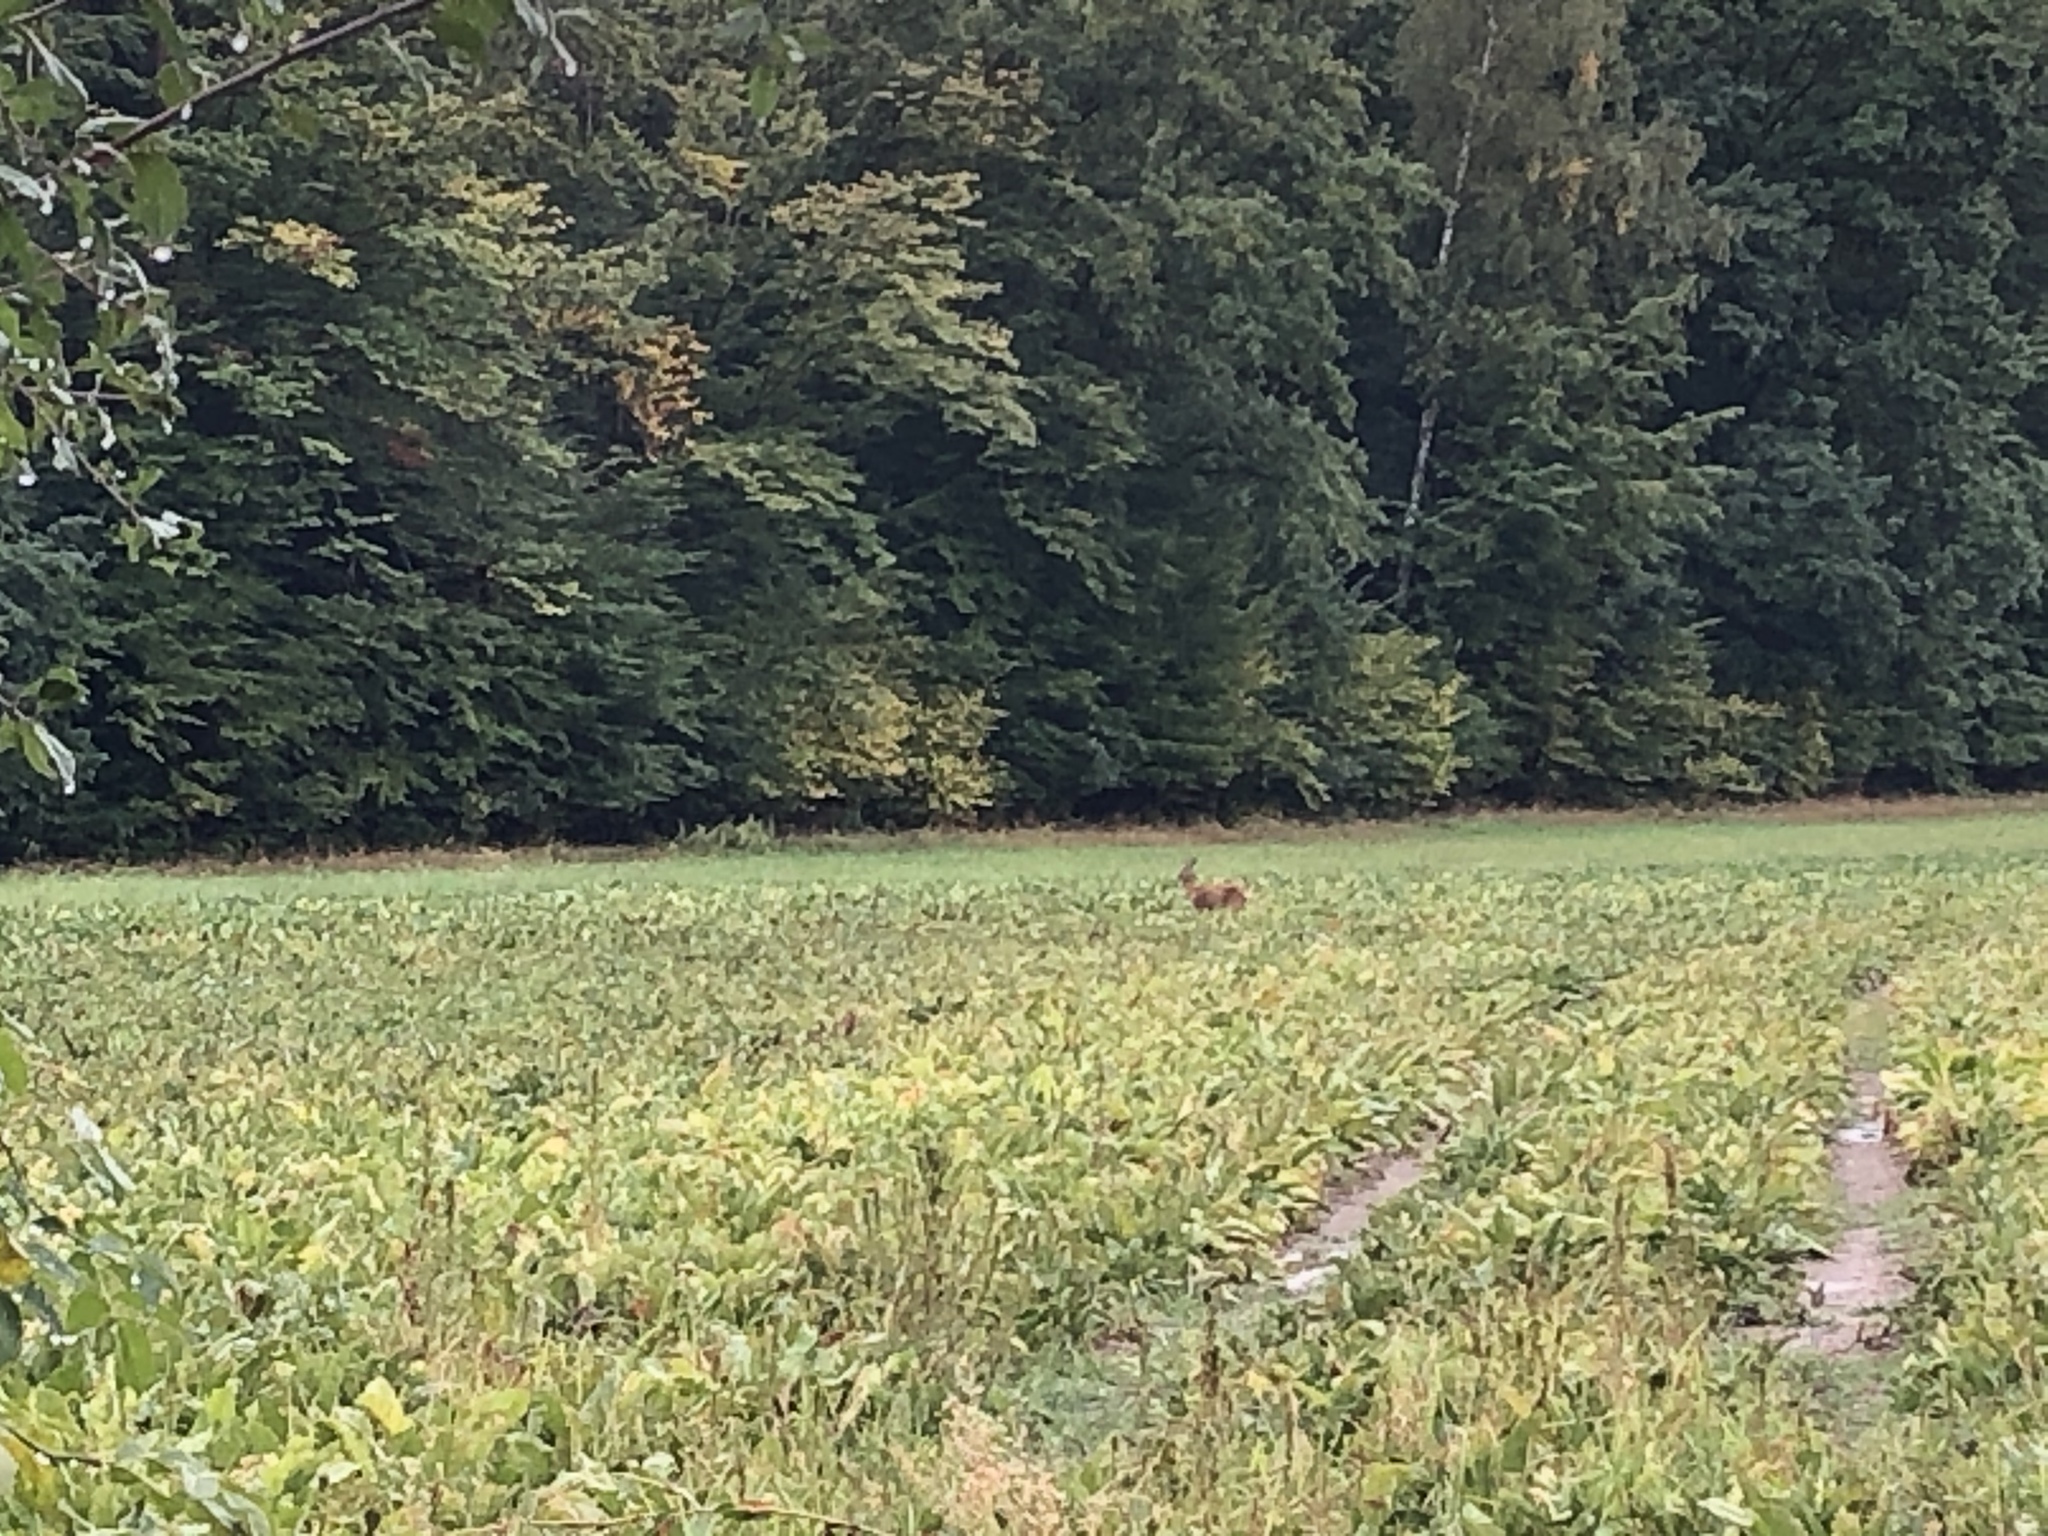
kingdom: Animalia
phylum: Chordata
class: Mammalia
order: Artiodactyla
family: Cervidae
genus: Capreolus
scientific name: Capreolus capreolus
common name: Western roe deer
